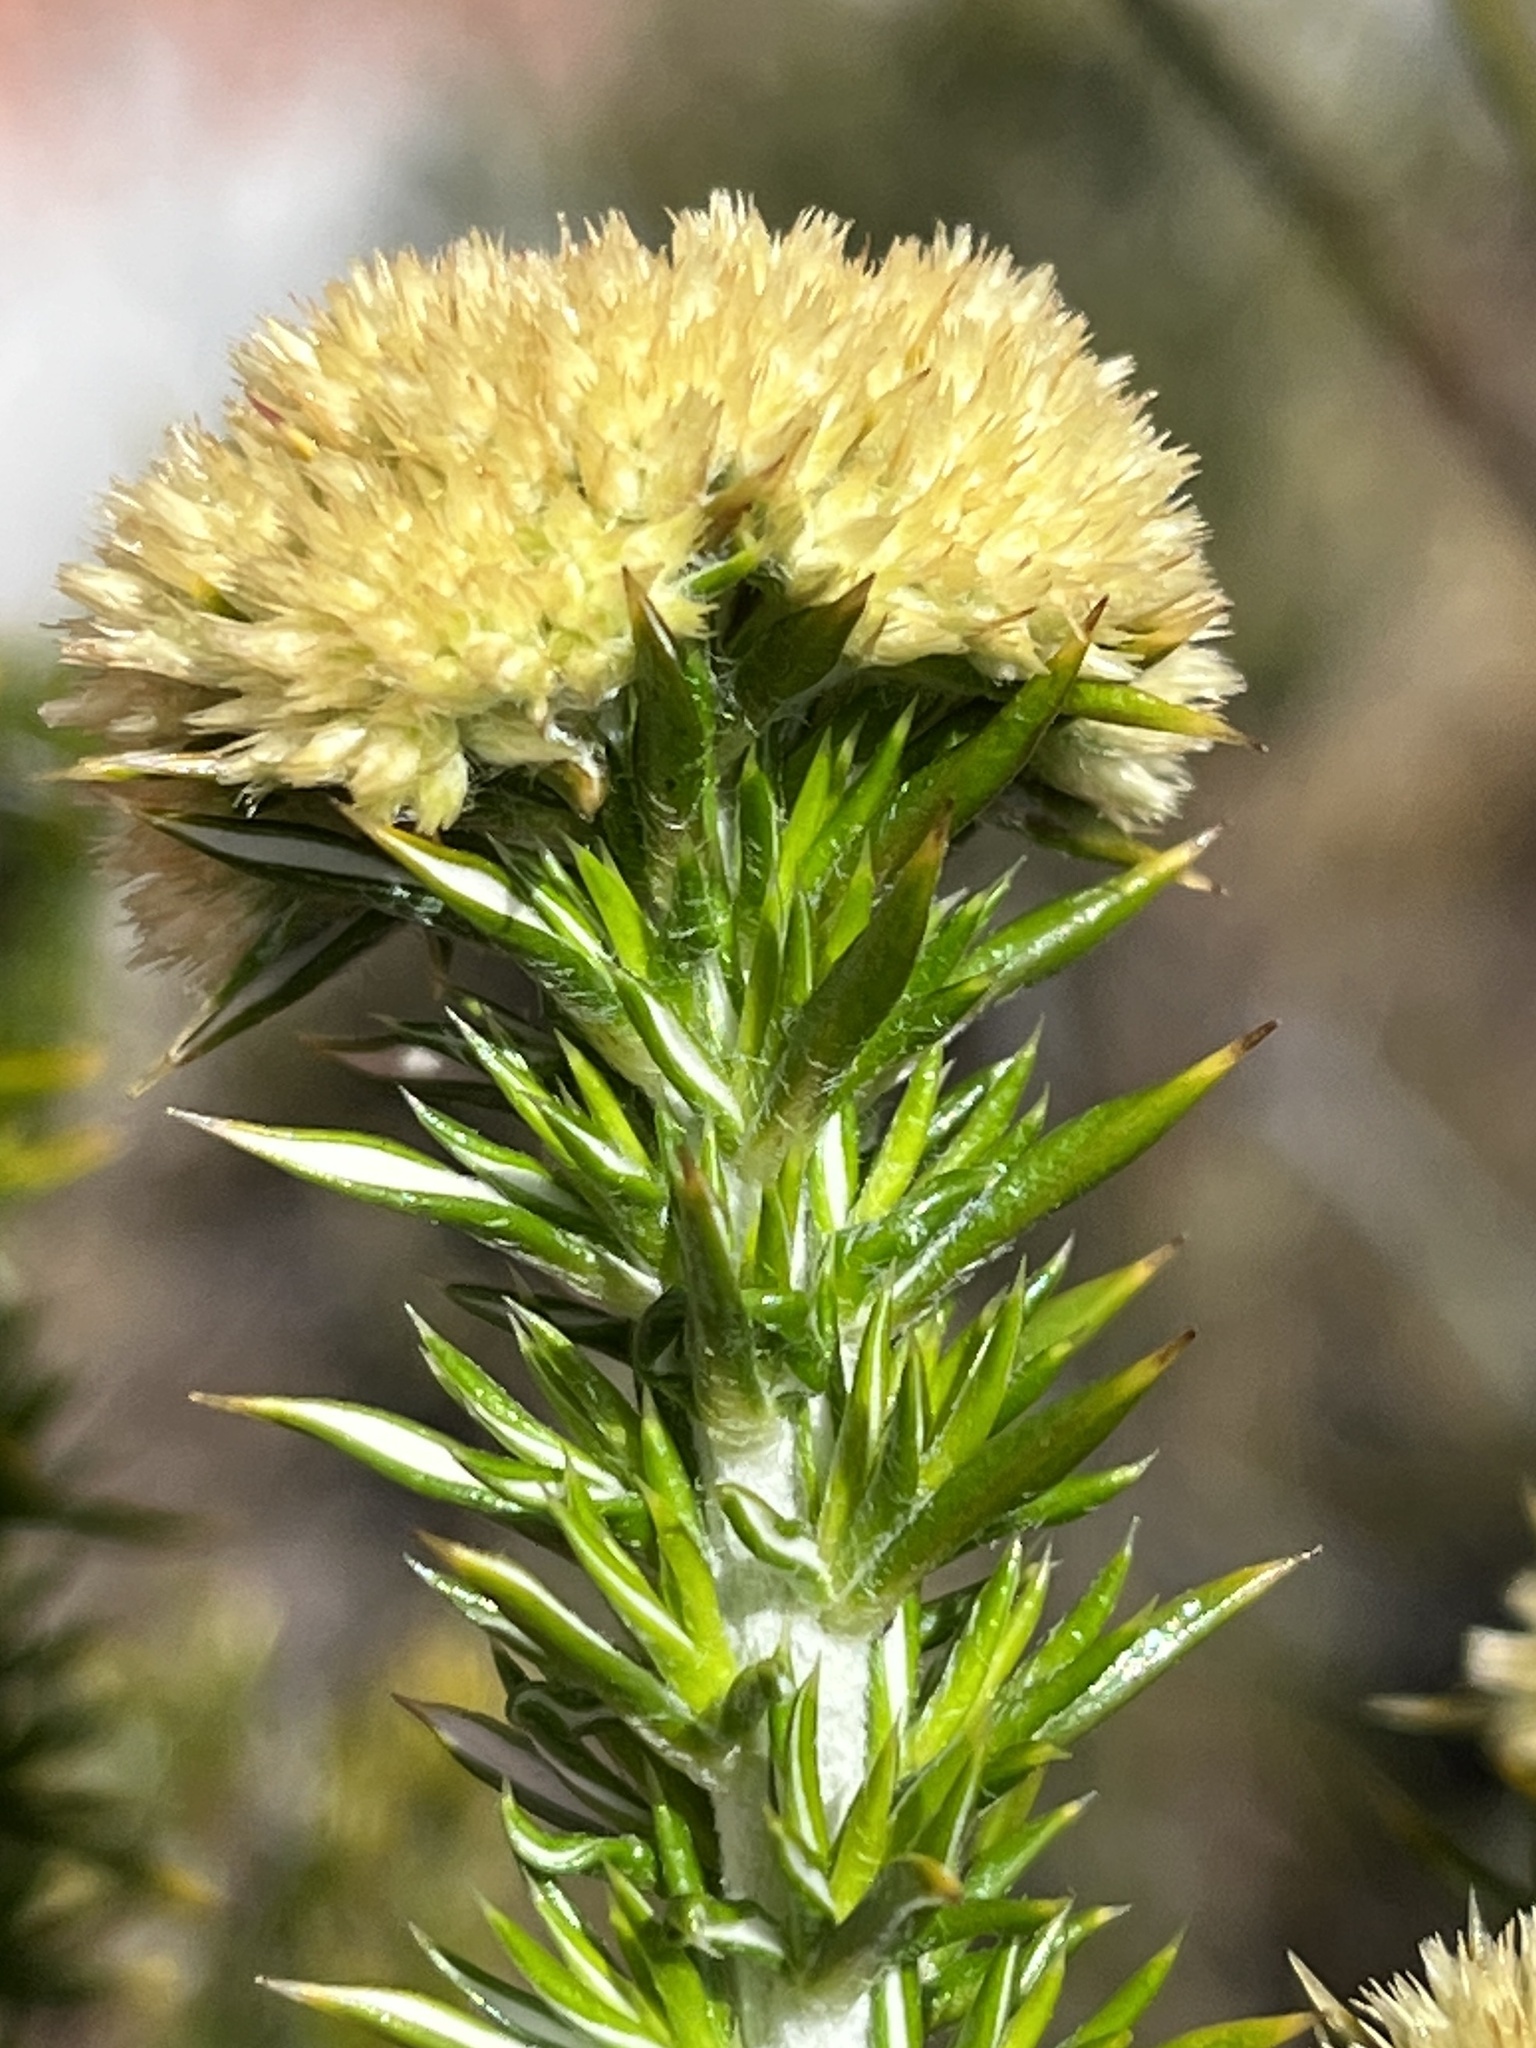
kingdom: Plantae
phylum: Tracheophyta
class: Magnoliopsida
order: Asterales
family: Asteraceae
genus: Metalasia
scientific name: Metalasia trivialis
